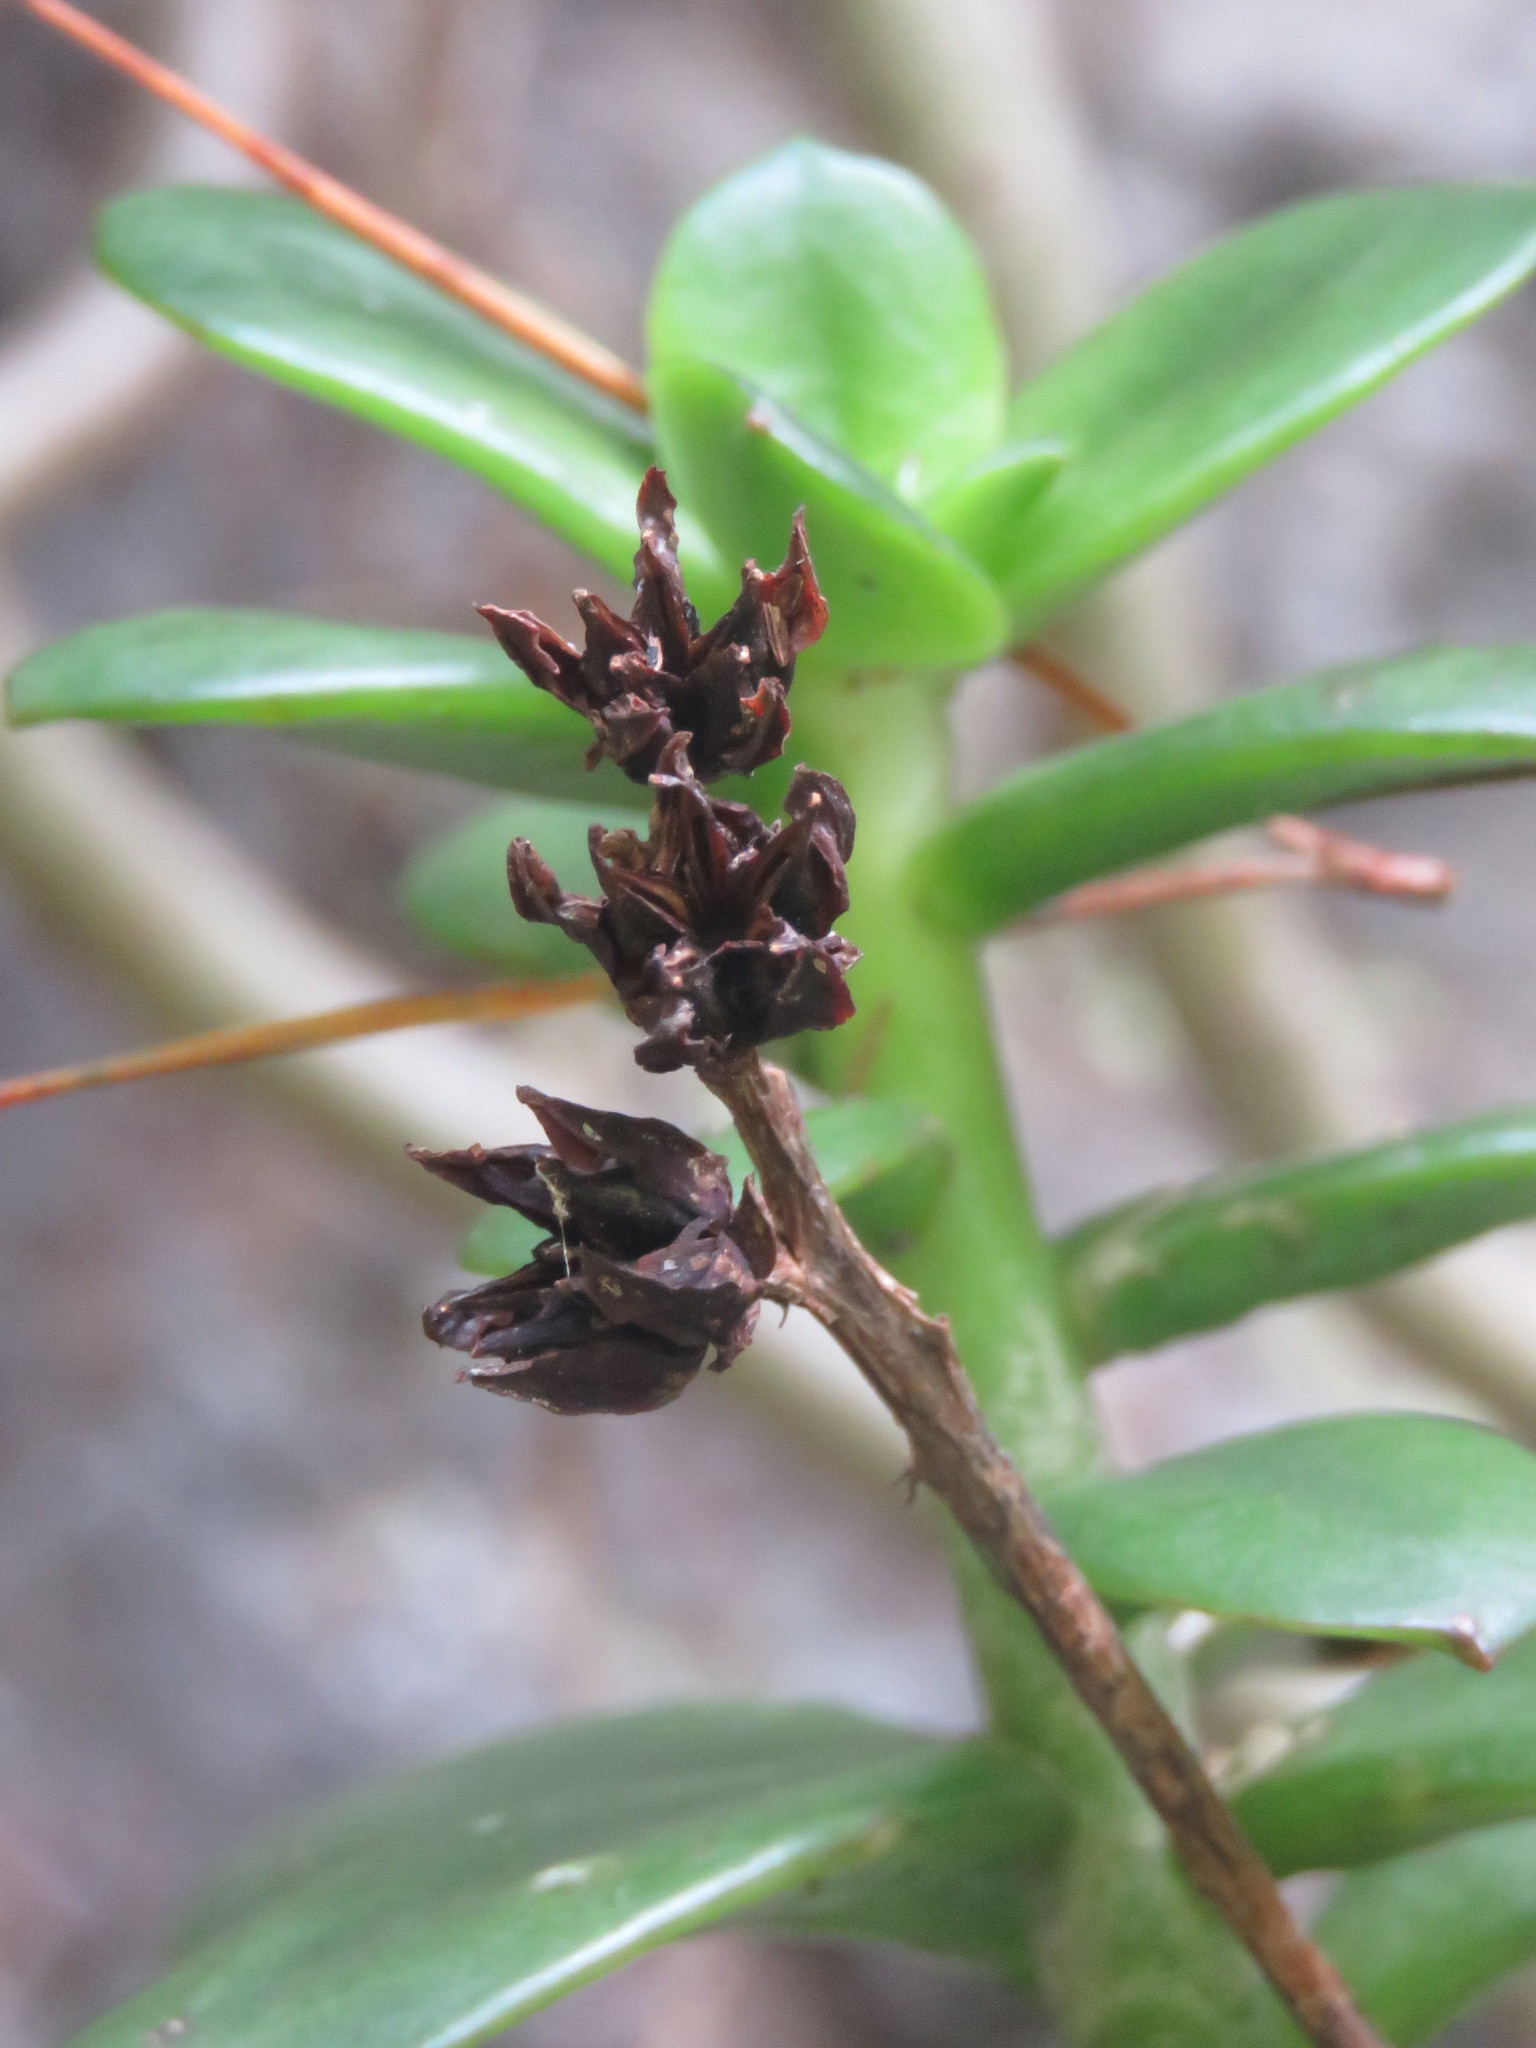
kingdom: Plantae
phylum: Tracheophyta
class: Magnoliopsida
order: Saxifragales
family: Crassulaceae
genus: Echeveria
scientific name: Echeveria bicolor
